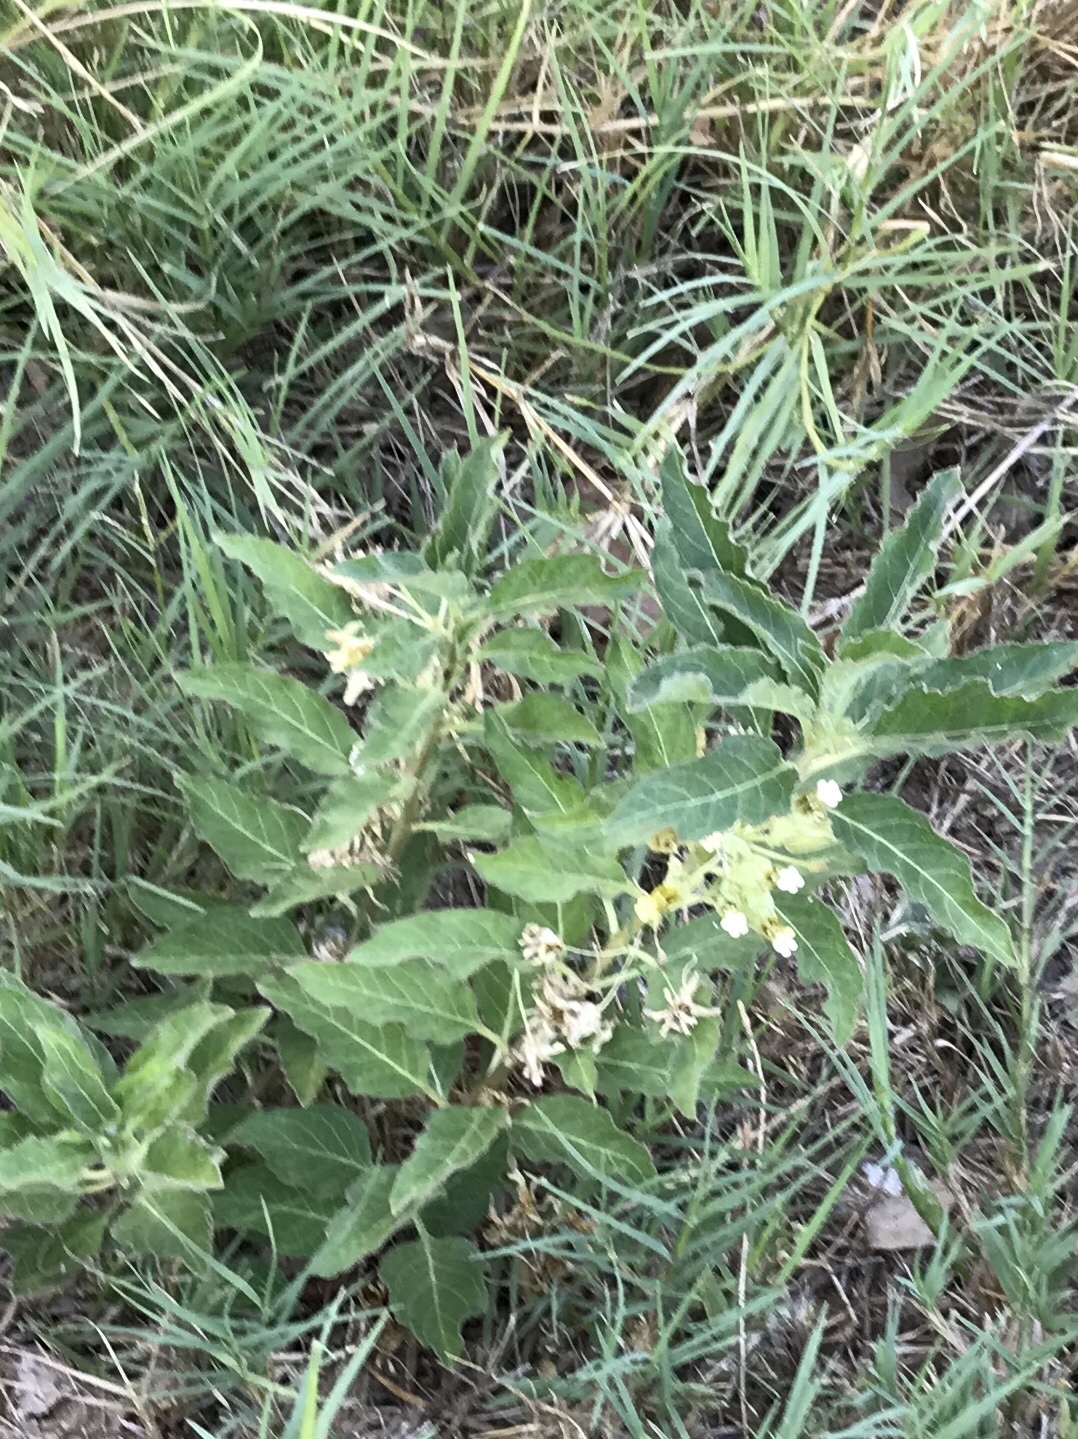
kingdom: Plantae
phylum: Tracheophyta
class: Magnoliopsida
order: Gentianales
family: Apocynaceae
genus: Asclepias
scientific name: Asclepias oenotheroides
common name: Zizotes milkweed
